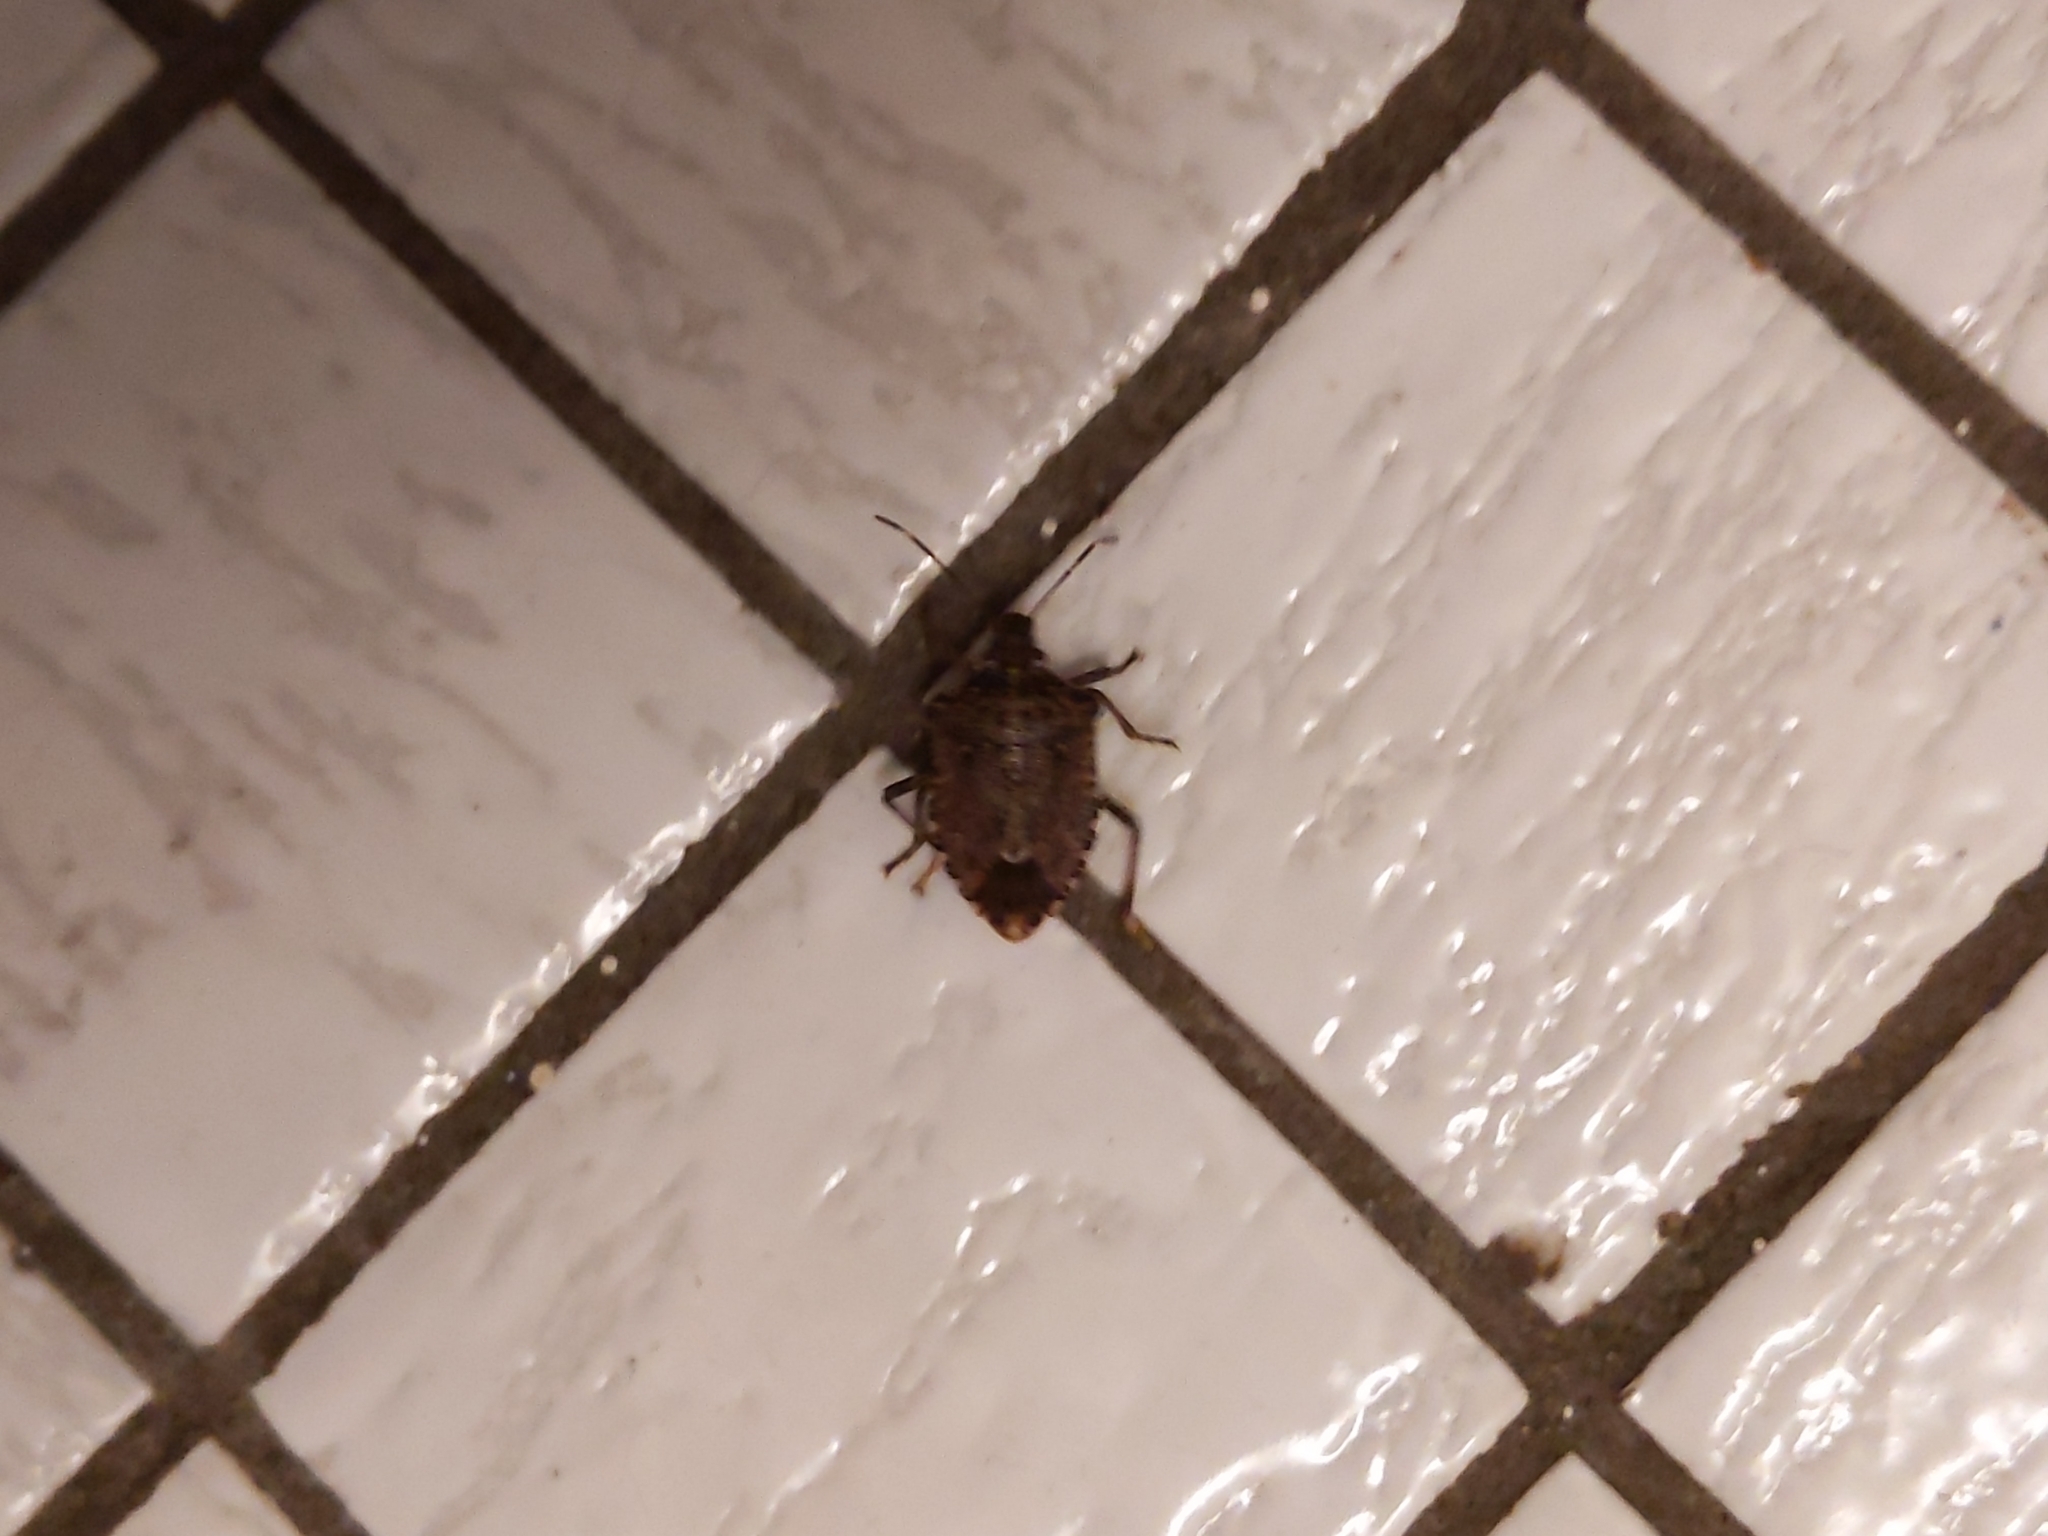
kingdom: Animalia
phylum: Arthropoda
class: Insecta
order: Hemiptera
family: Pentatomidae
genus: Halyomorpha
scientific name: Halyomorpha halys
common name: Brown marmorated stink bug
